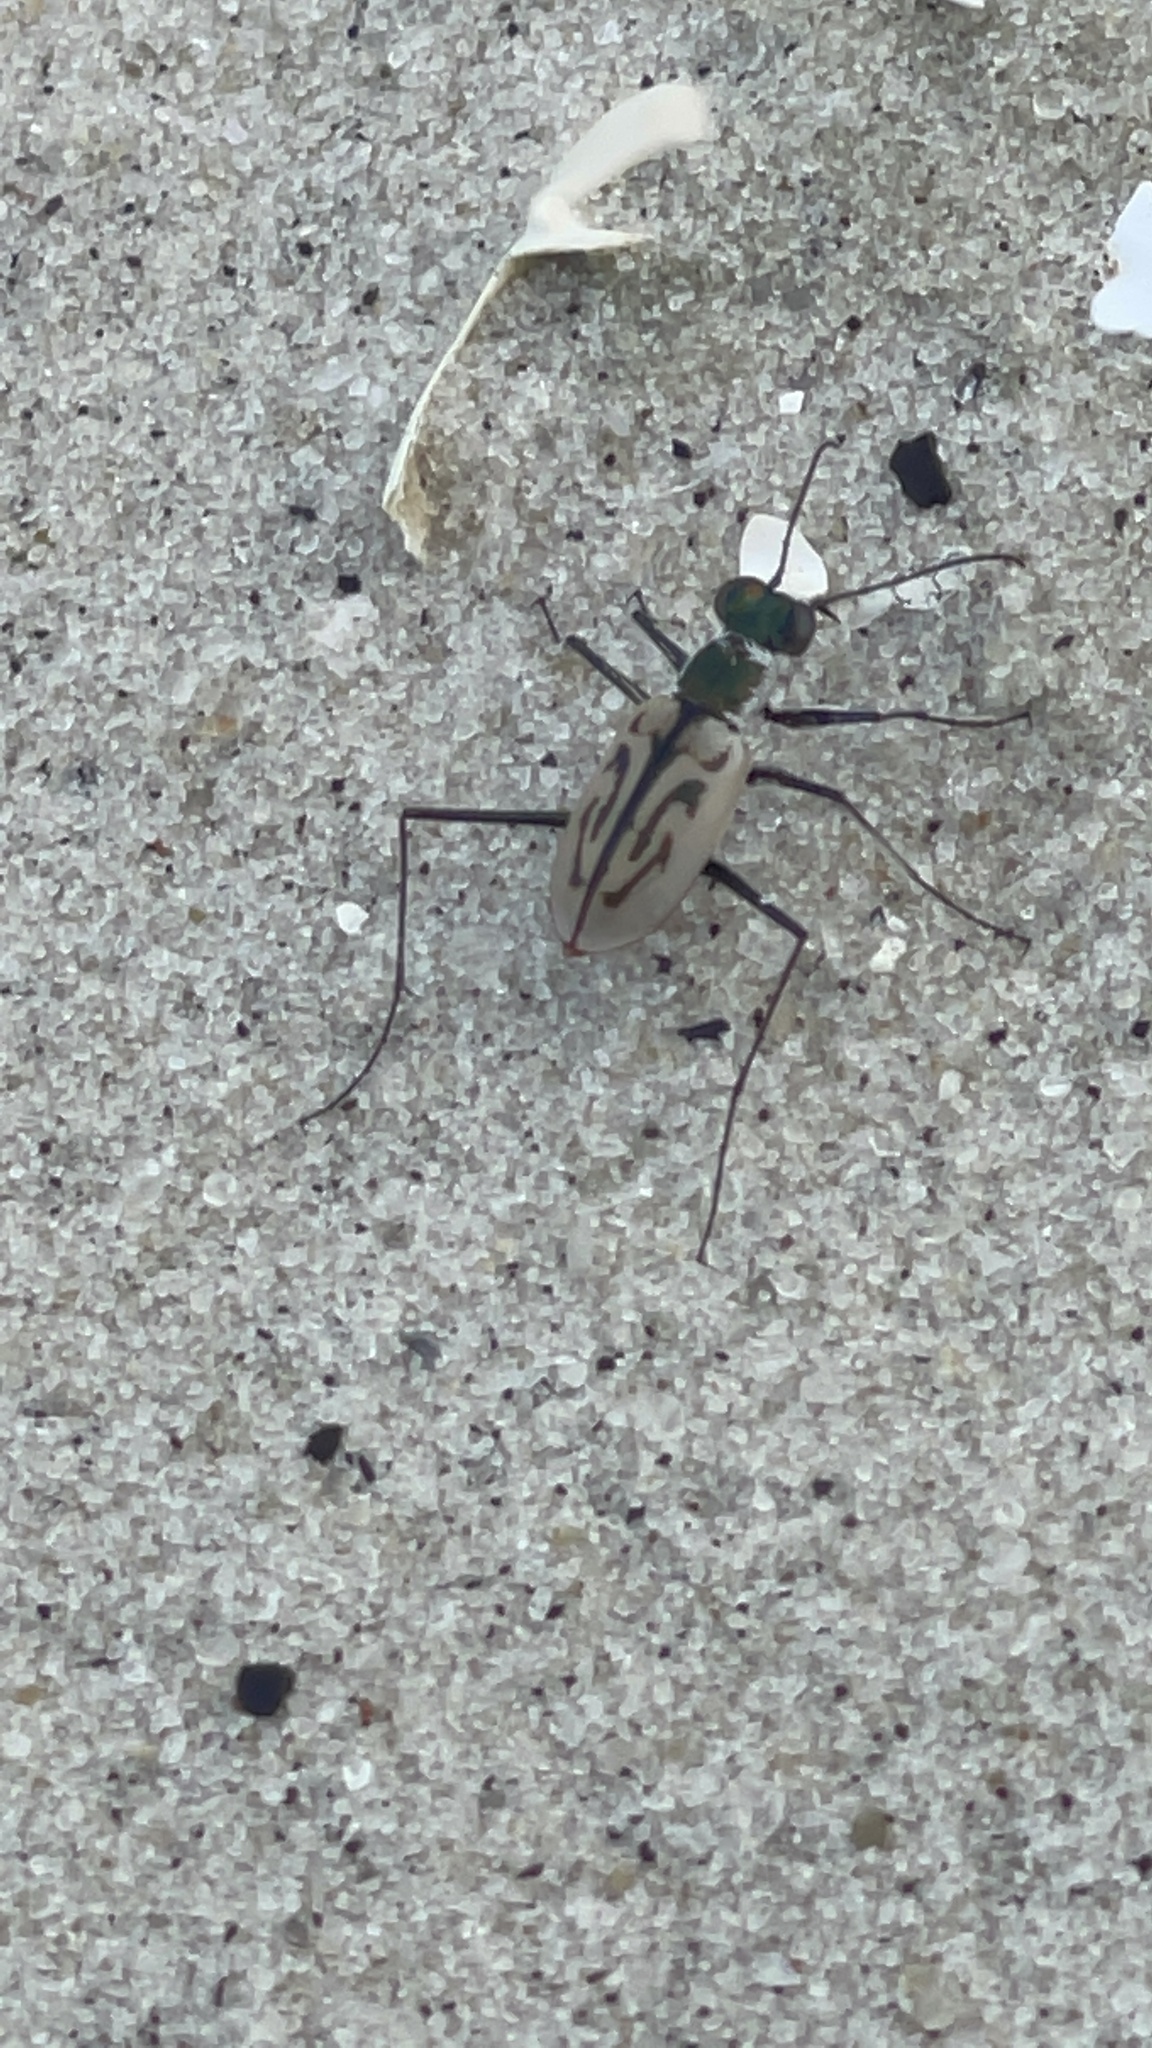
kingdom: Animalia
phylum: Arthropoda
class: Insecta
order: Coleoptera
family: Carabidae
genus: Habroscelimorpha
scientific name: Habroscelimorpha dorsalis
